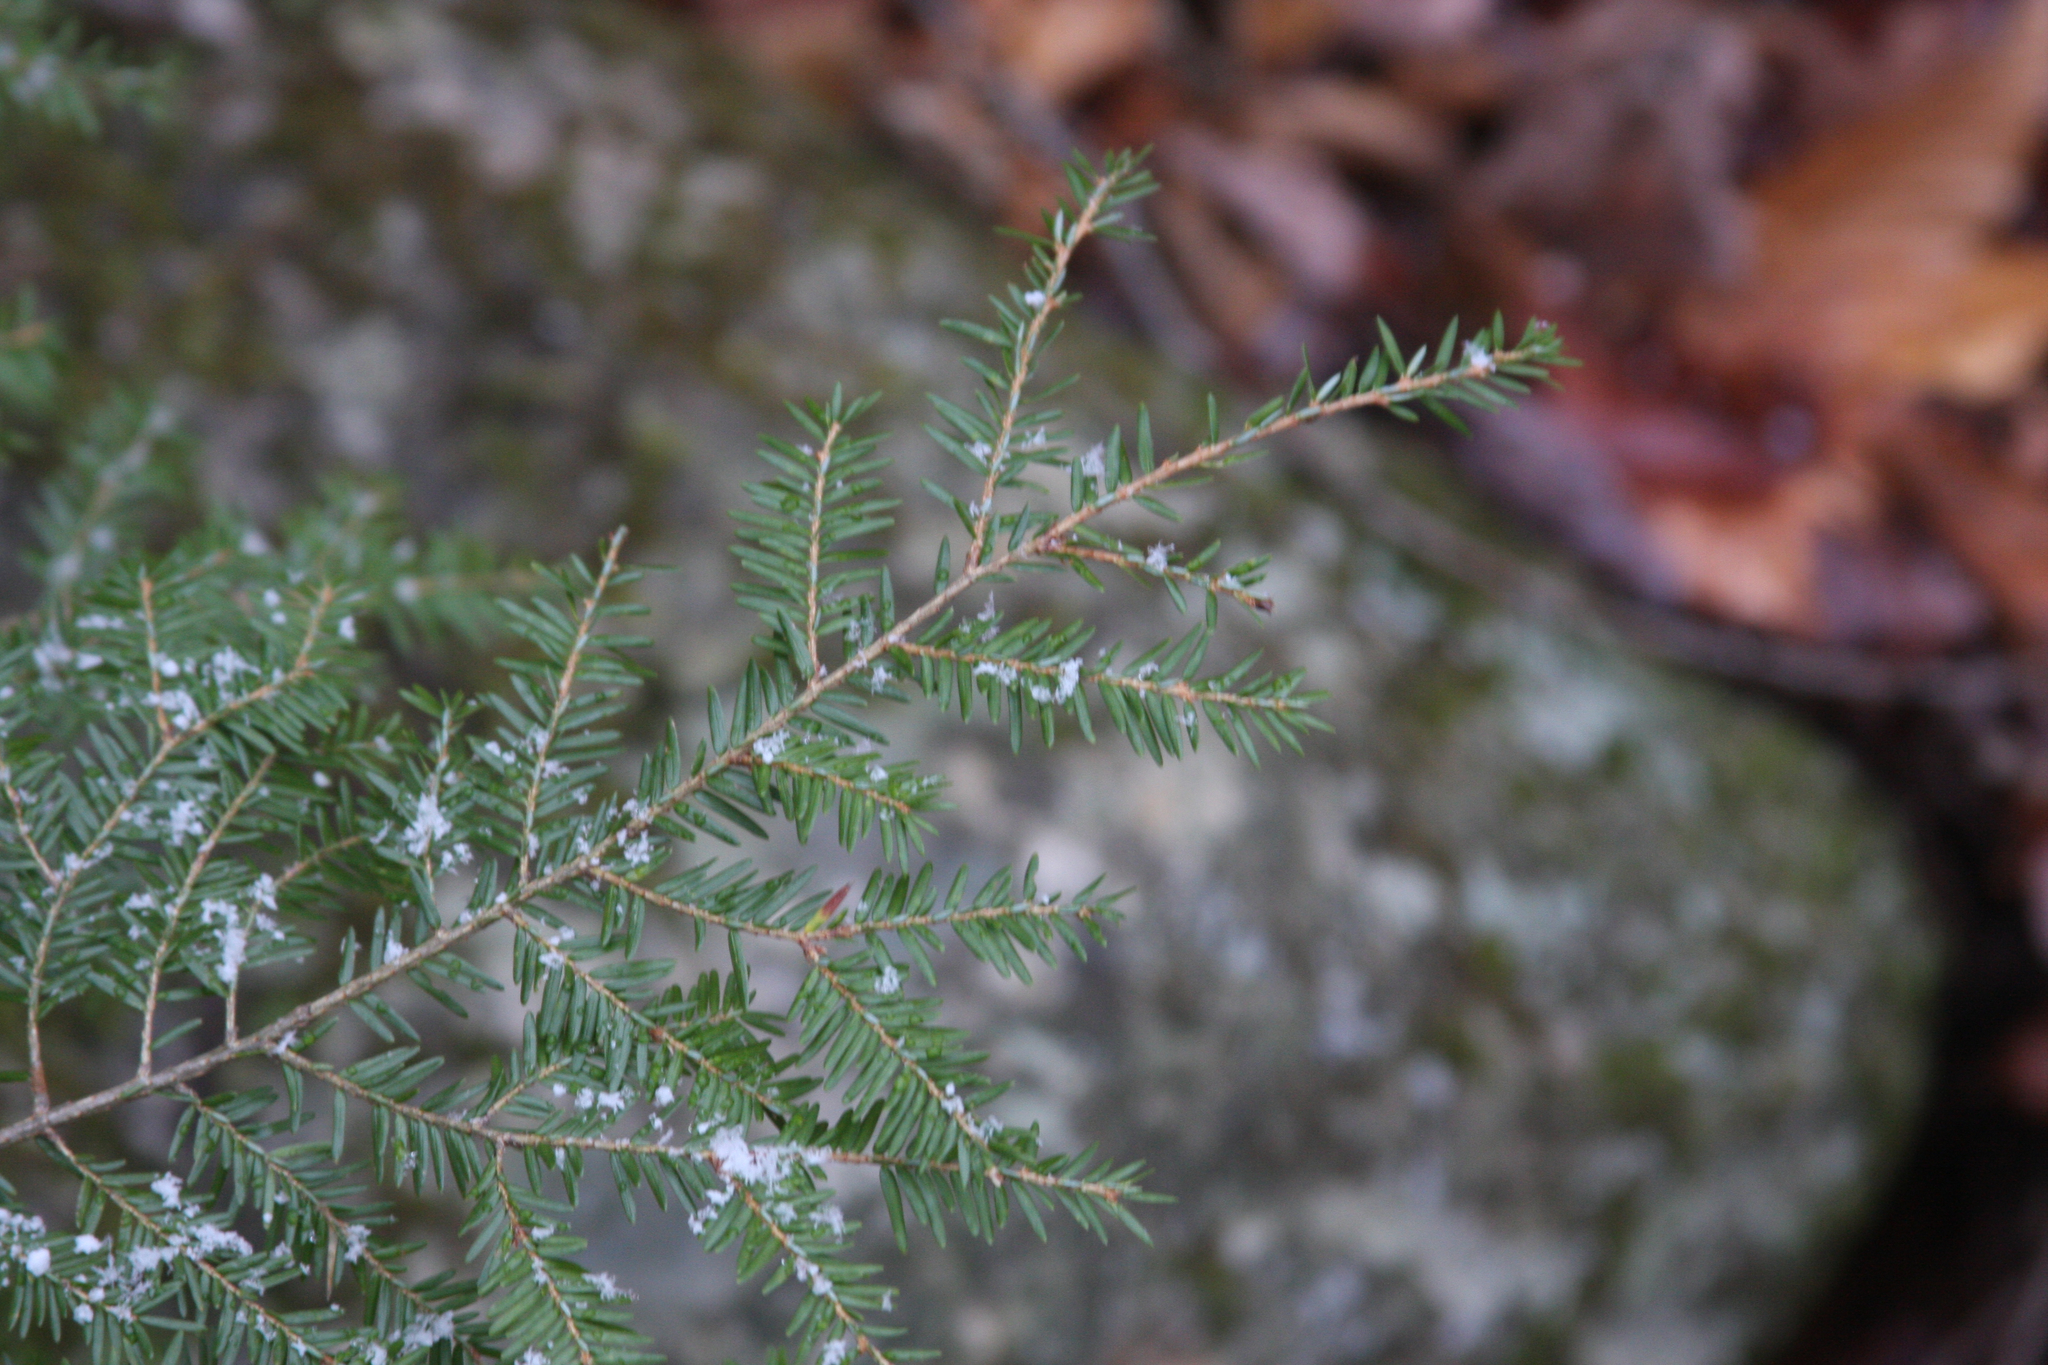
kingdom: Plantae
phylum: Tracheophyta
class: Pinopsida
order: Pinales
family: Pinaceae
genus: Tsuga
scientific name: Tsuga canadensis
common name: Eastern hemlock
